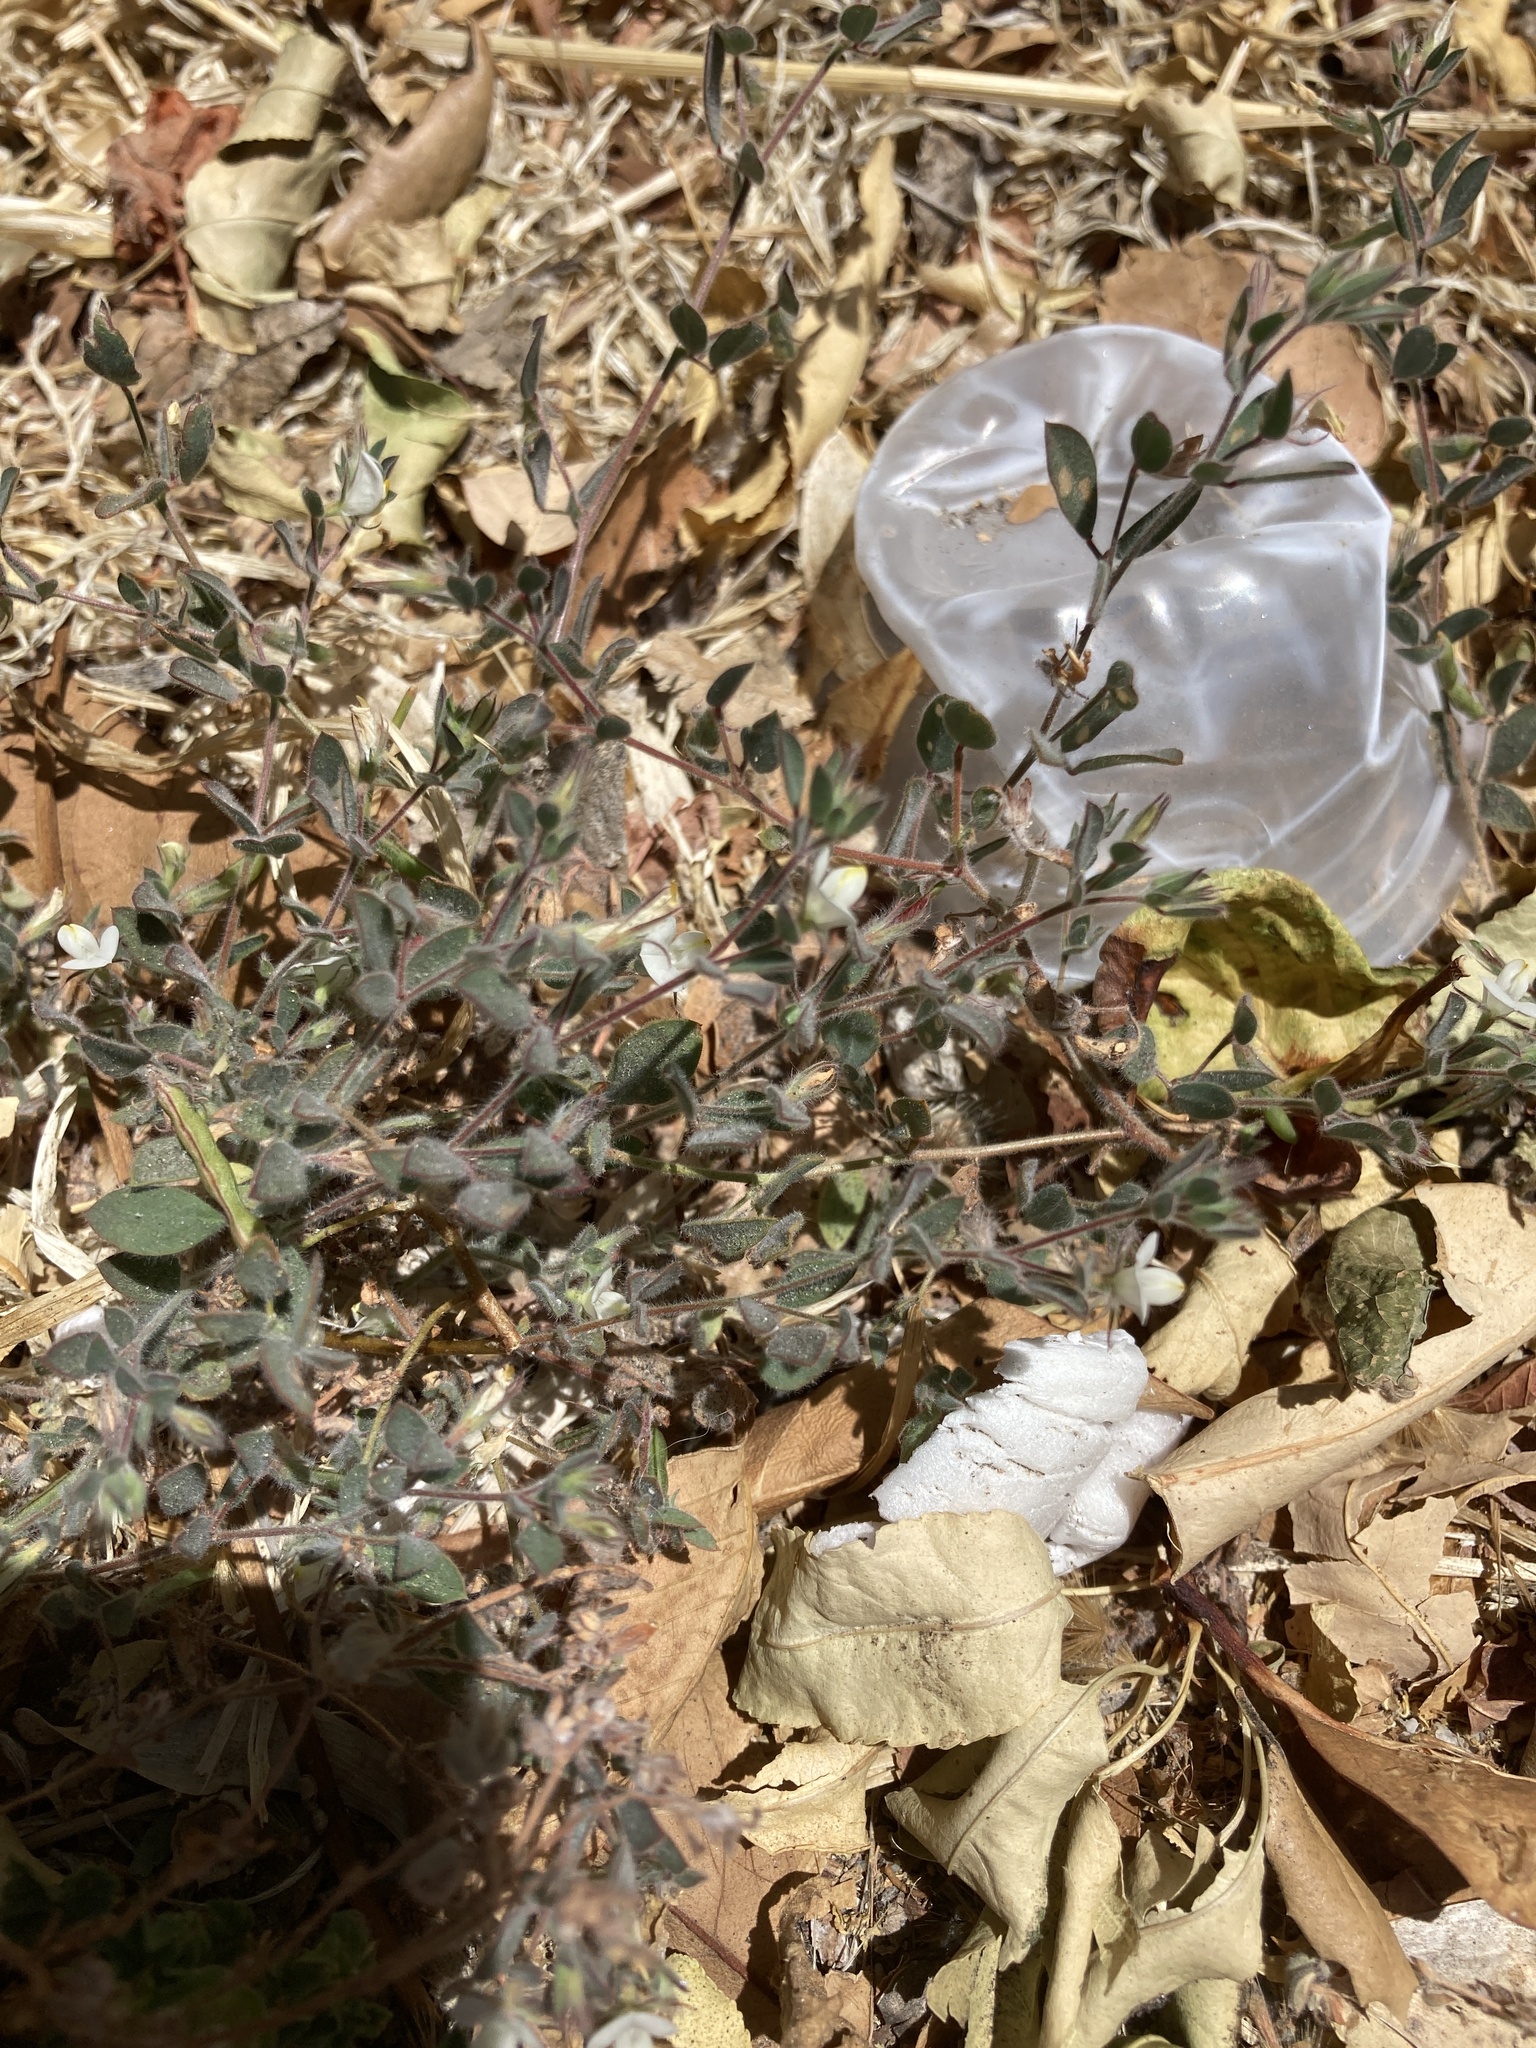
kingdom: Plantae
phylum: Tracheophyta
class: Magnoliopsida
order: Fabales
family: Fabaceae
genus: Acmispon
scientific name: Acmispon americanus
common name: American bird's-foot trefoil
